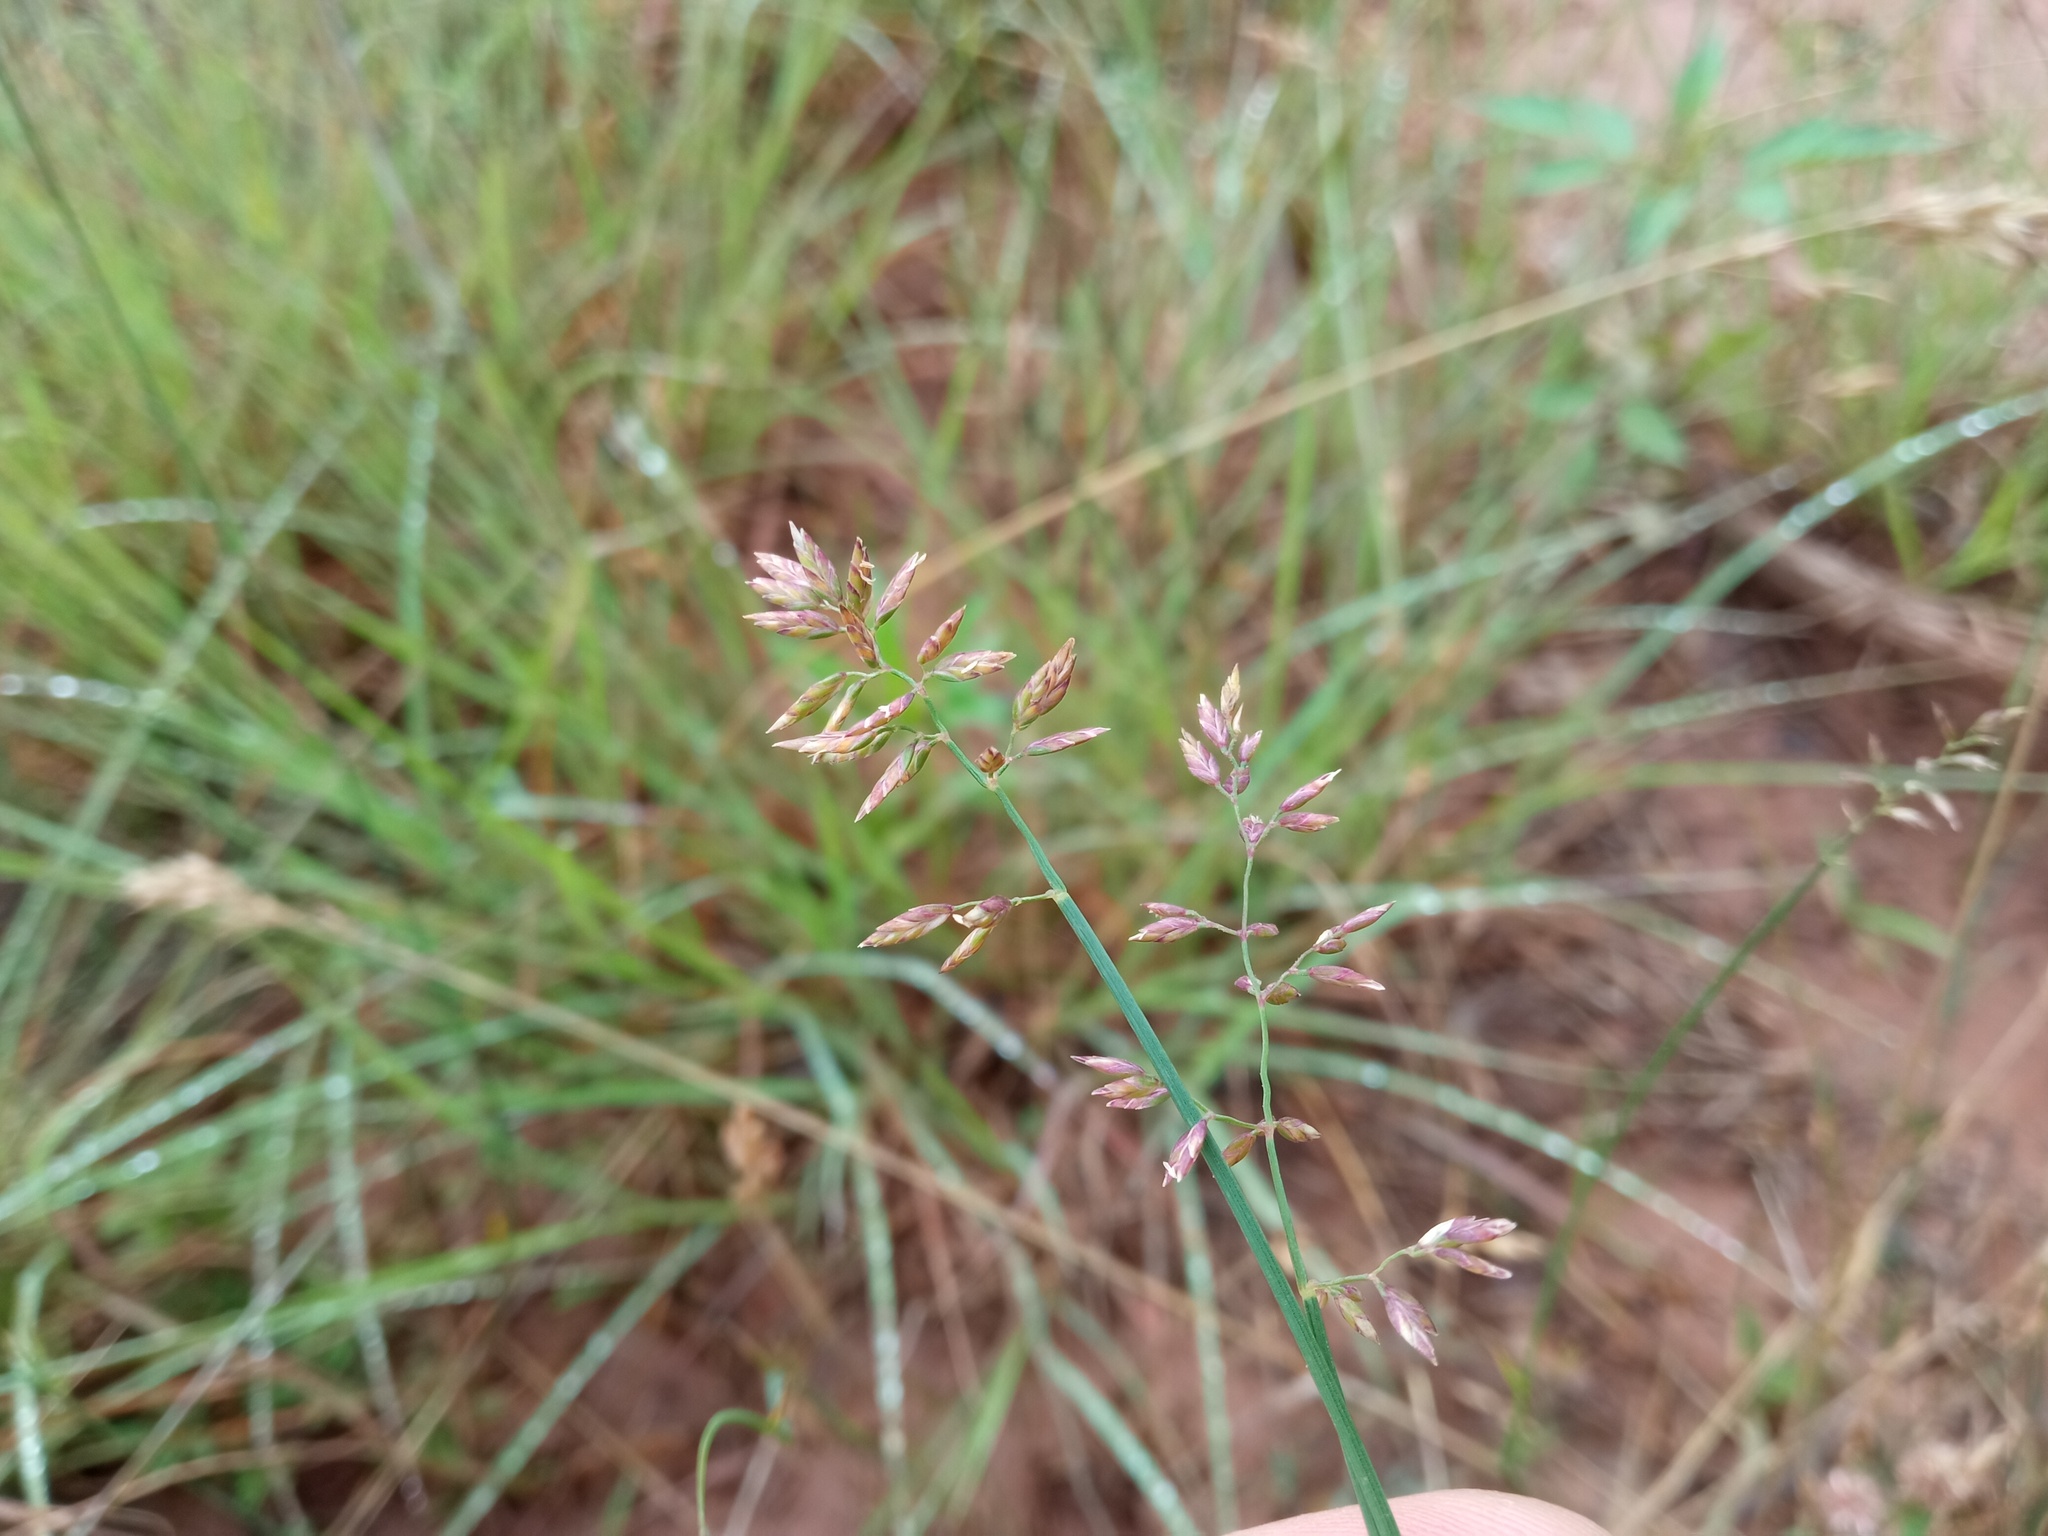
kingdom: Plantae
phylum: Tracheophyta
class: Liliopsida
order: Poales
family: Poaceae
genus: Poa
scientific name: Poa compressa
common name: Canada bluegrass
